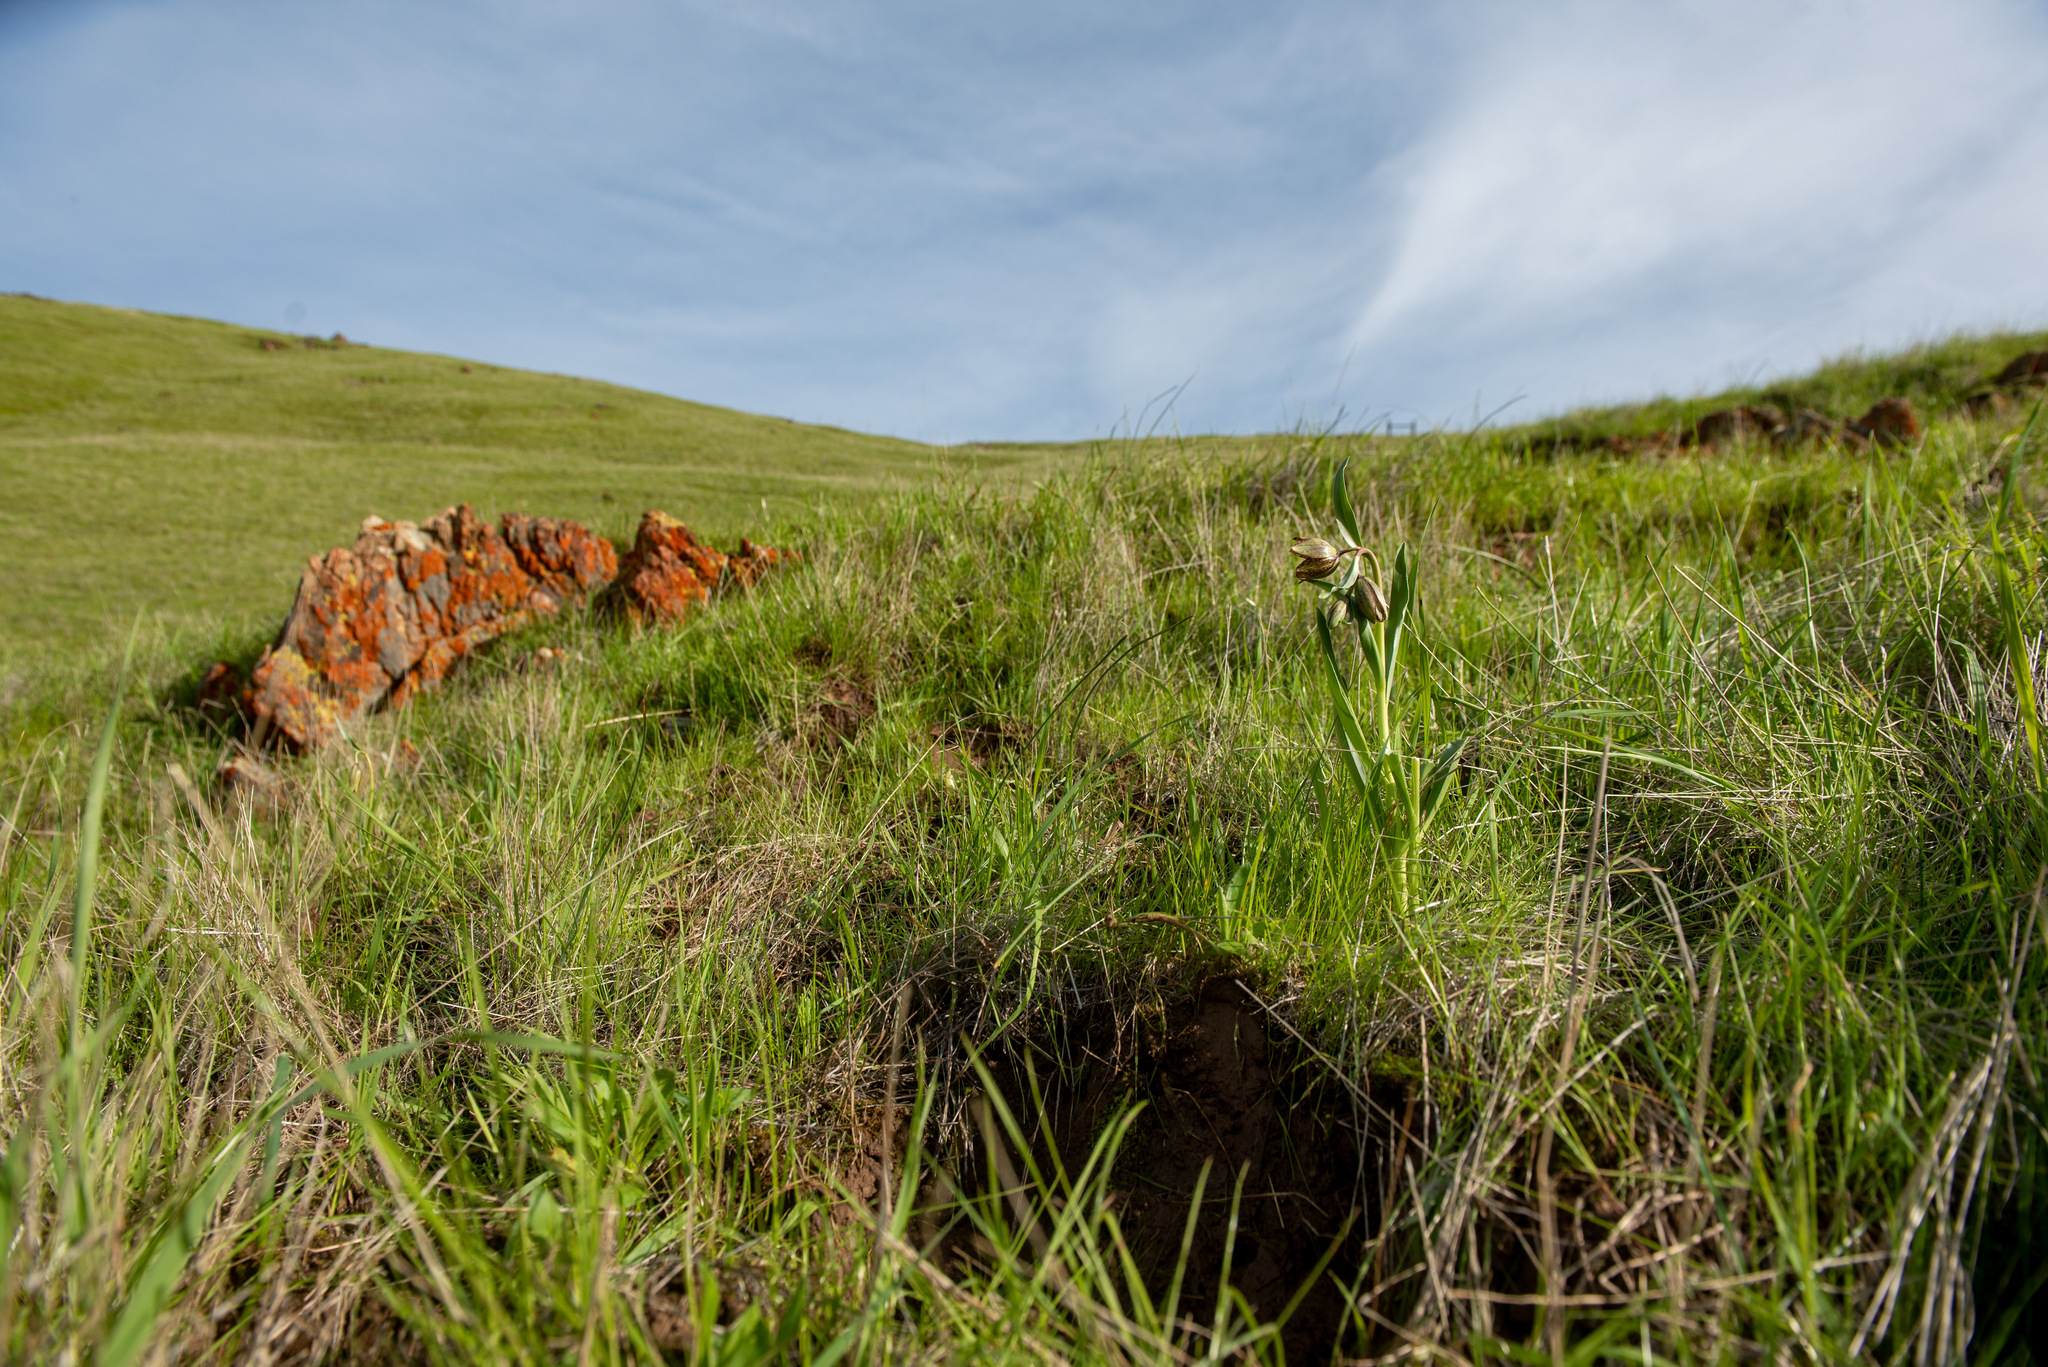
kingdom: Plantae
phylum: Tracheophyta
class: Liliopsida
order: Liliales
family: Liliaceae
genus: Fritillaria
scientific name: Fritillaria agrestis
